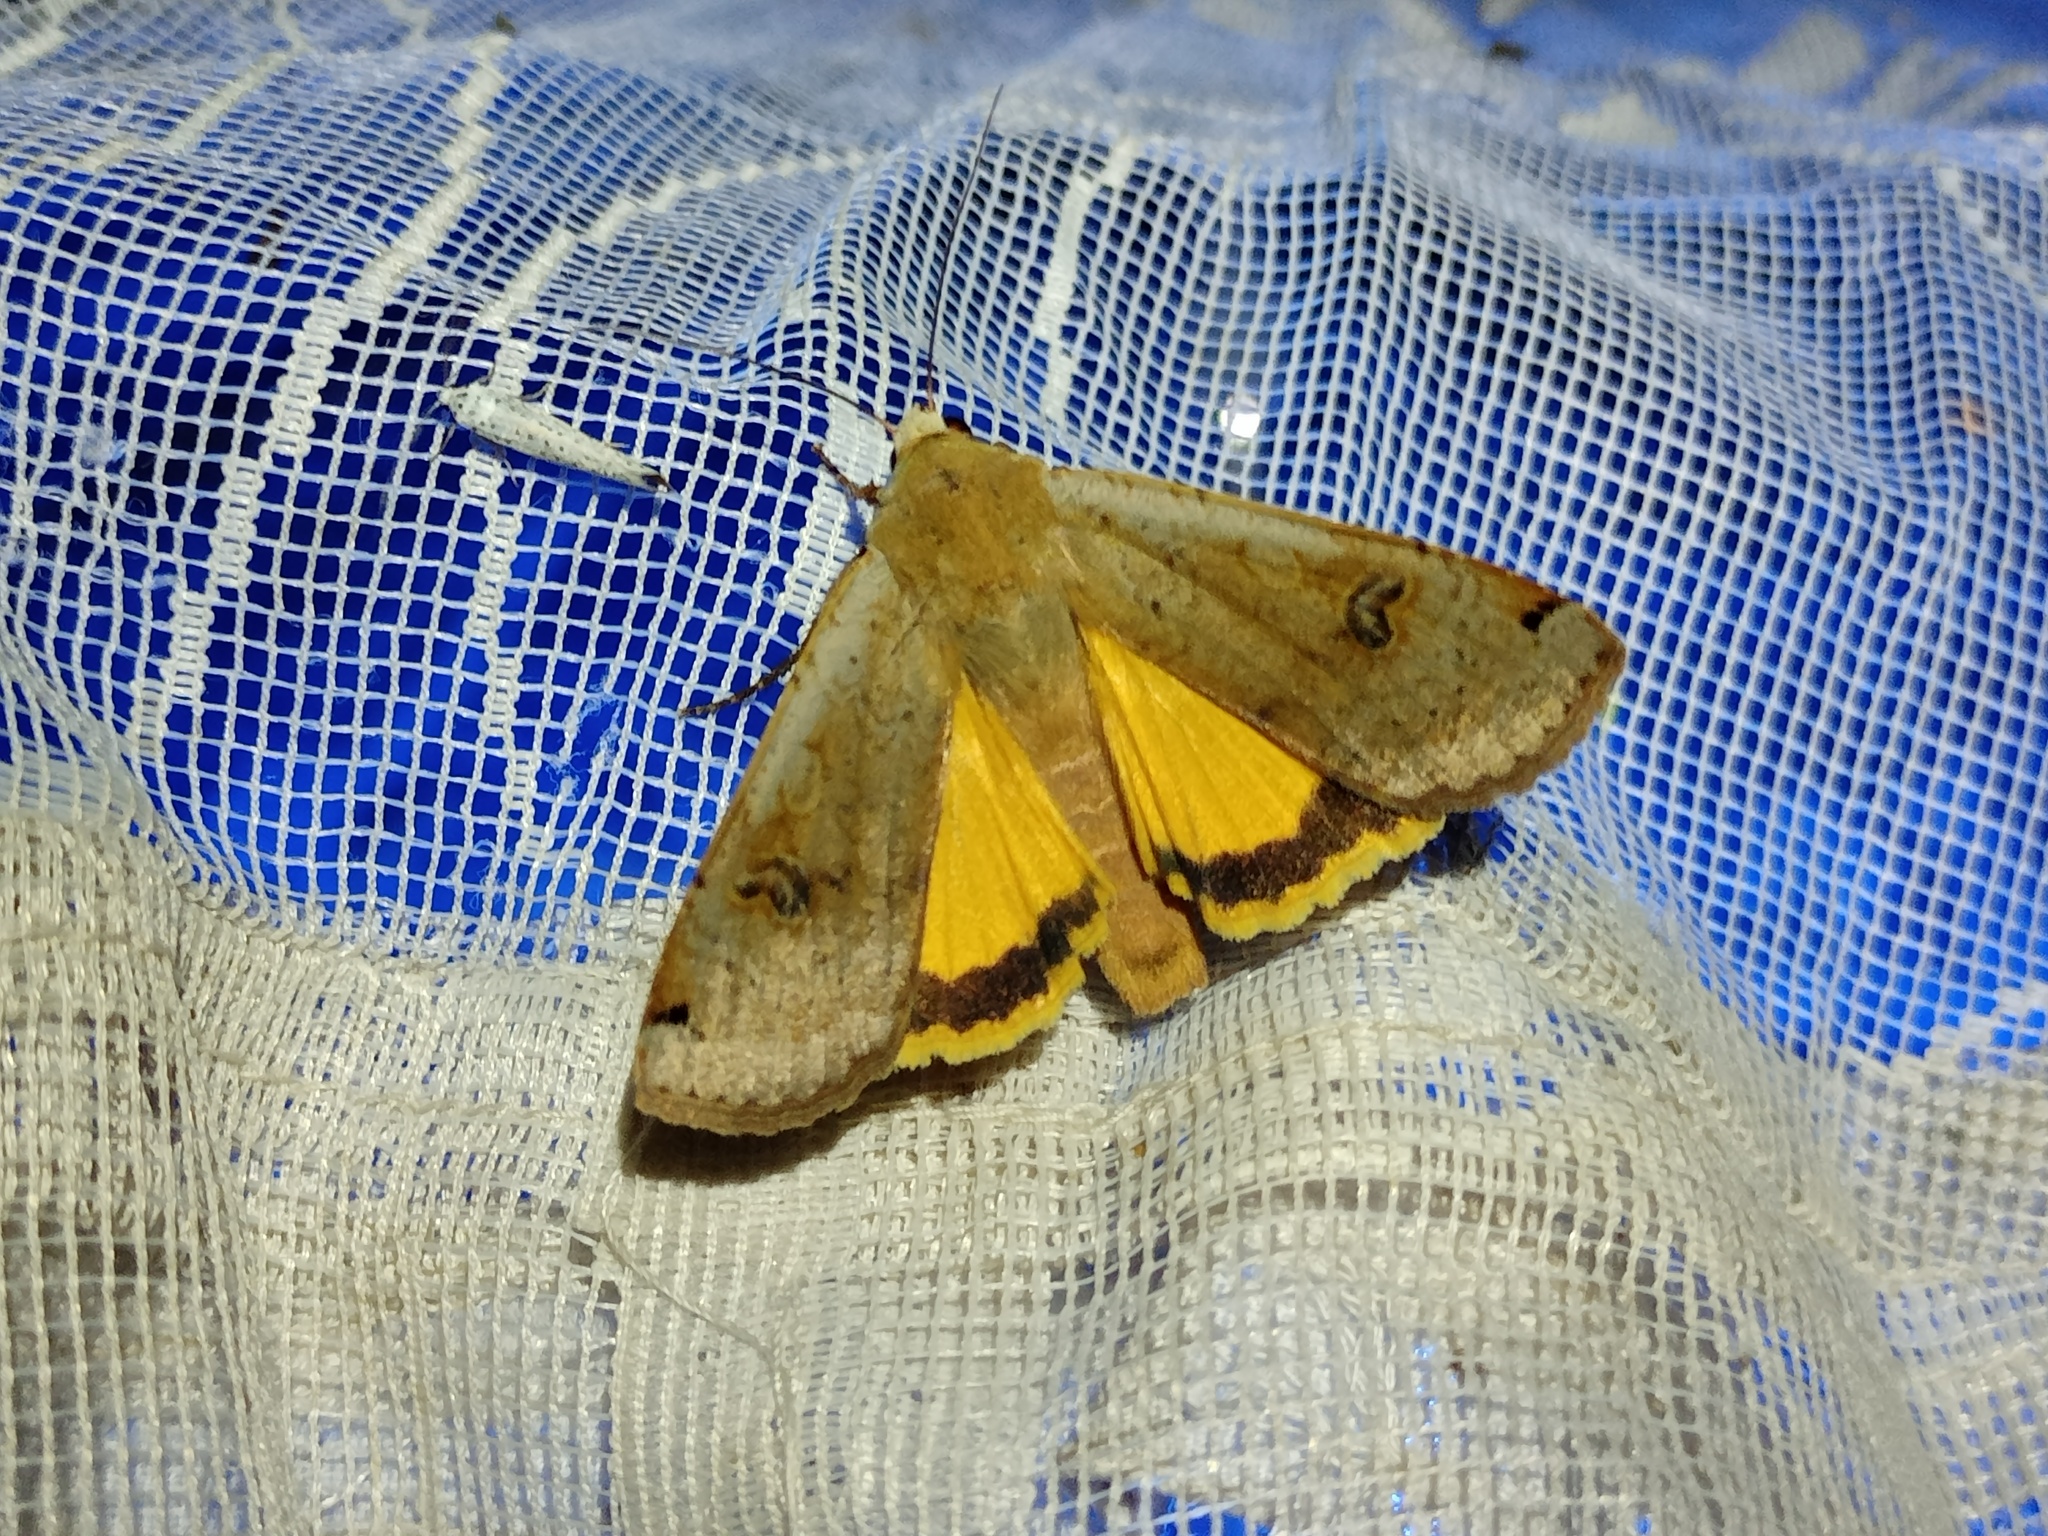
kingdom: Animalia
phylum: Arthropoda
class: Insecta
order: Lepidoptera
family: Noctuidae
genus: Noctua
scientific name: Noctua pronuba
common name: Large yellow underwing
